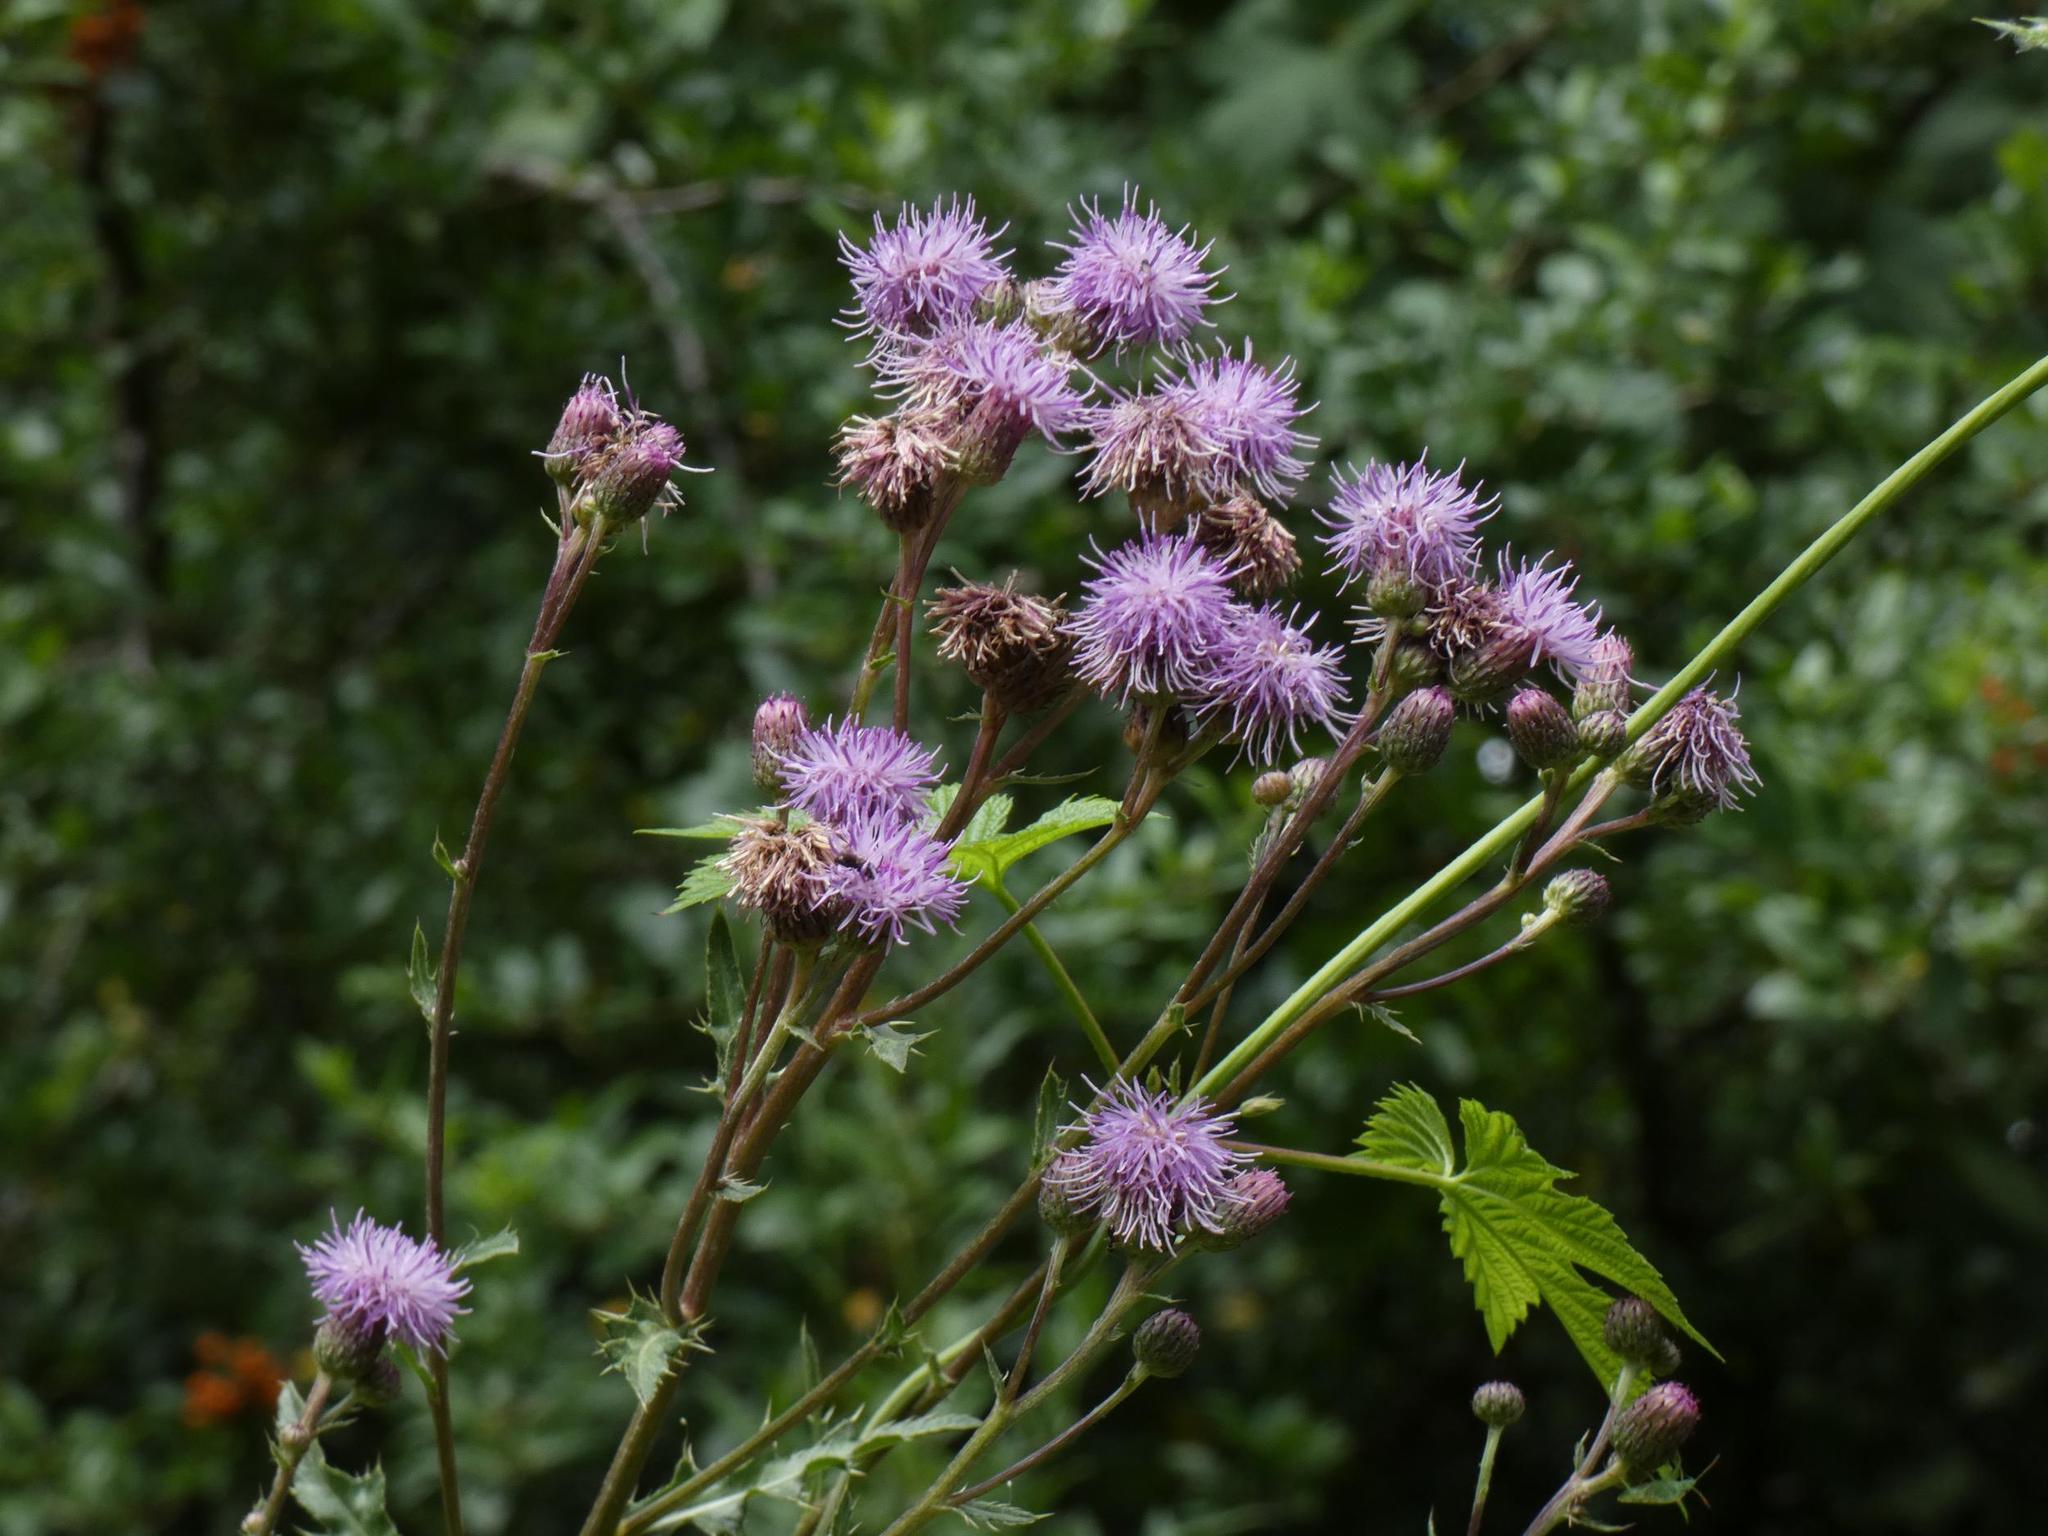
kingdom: Plantae
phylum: Tracheophyta
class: Magnoliopsida
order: Asterales
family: Asteraceae
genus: Cirsium
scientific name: Cirsium arvense
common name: Creeping thistle
